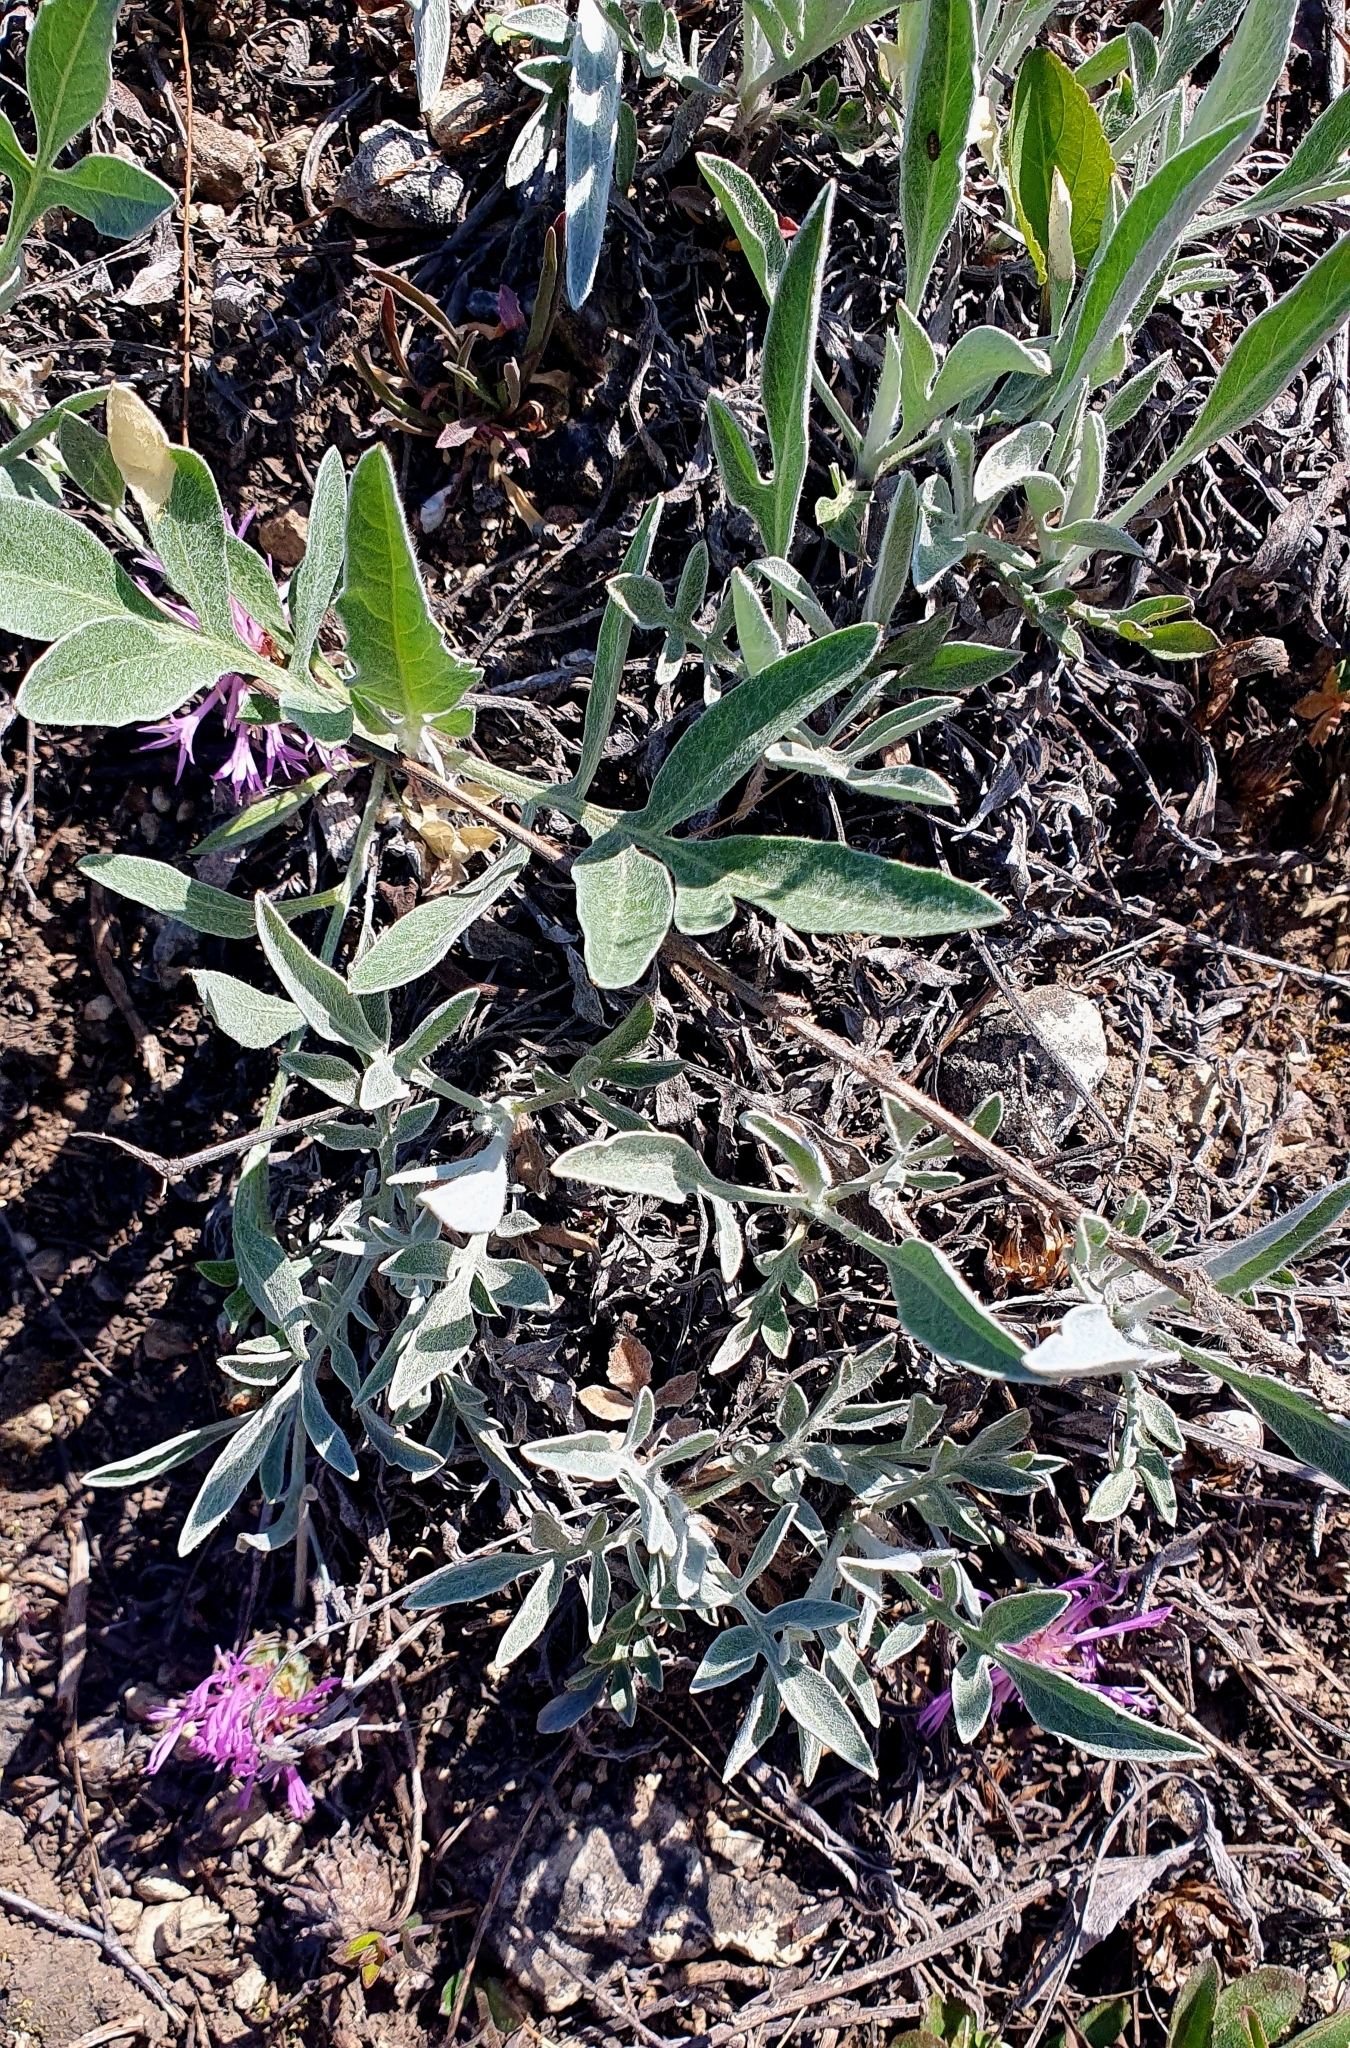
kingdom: Plantae
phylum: Tracheophyta
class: Magnoliopsida
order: Asterales
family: Asteraceae
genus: Psephellus
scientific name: Psephellus marschallianus
